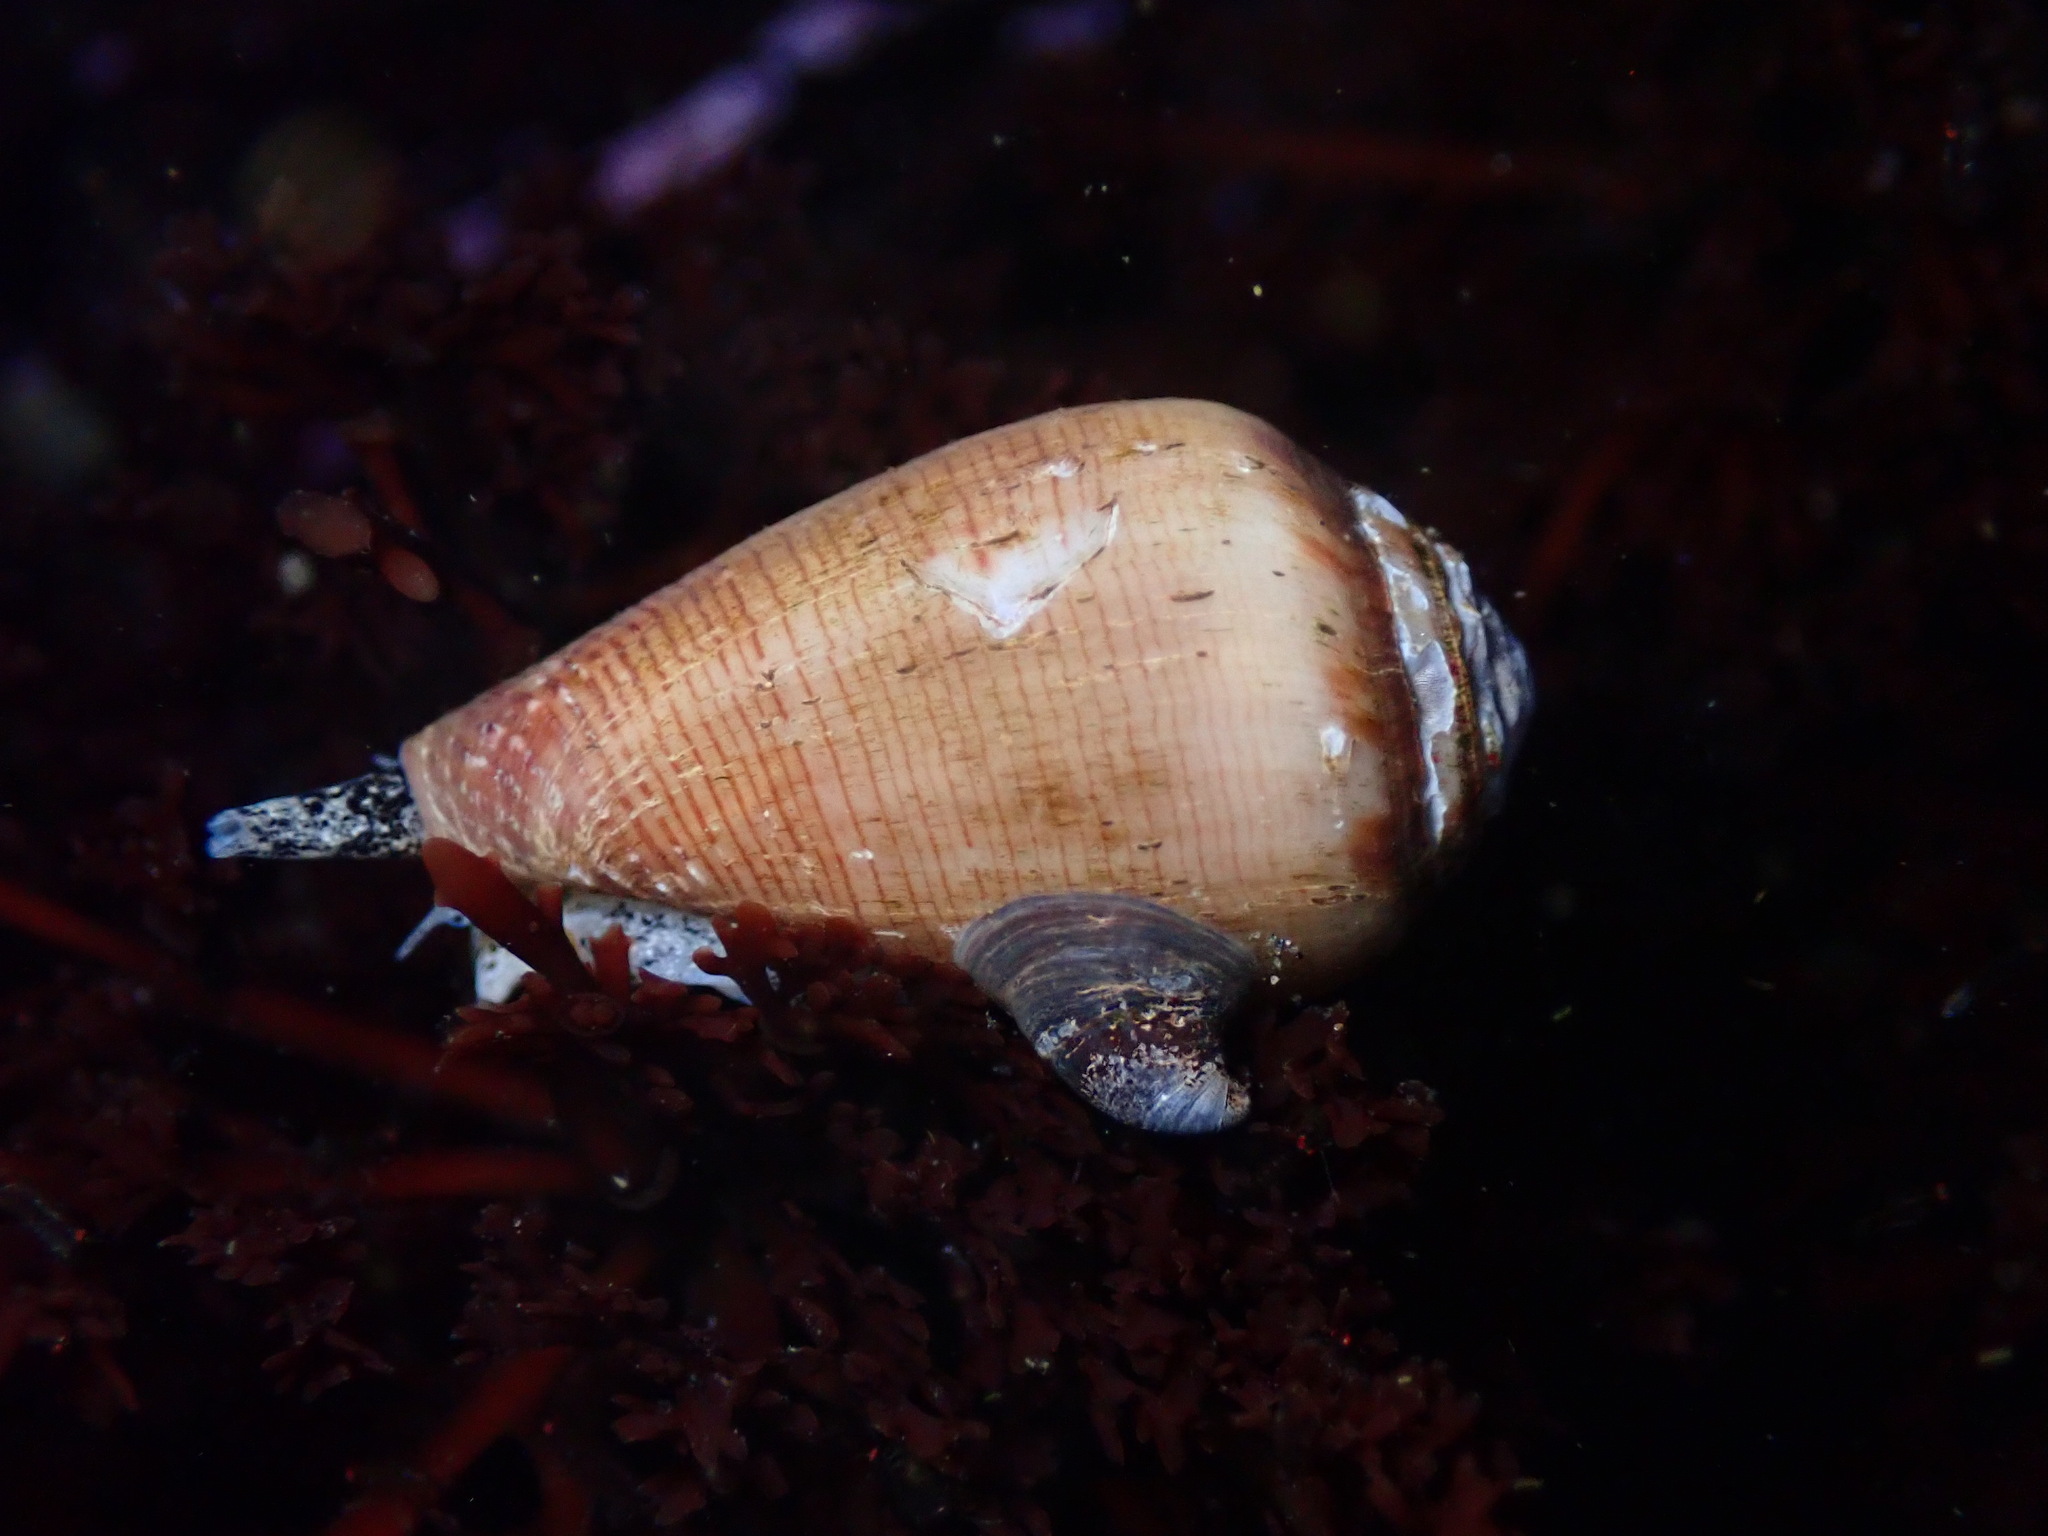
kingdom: Animalia
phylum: Mollusca
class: Gastropoda
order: Neogastropoda
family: Conidae
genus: Californiconus
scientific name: Californiconus californicus
